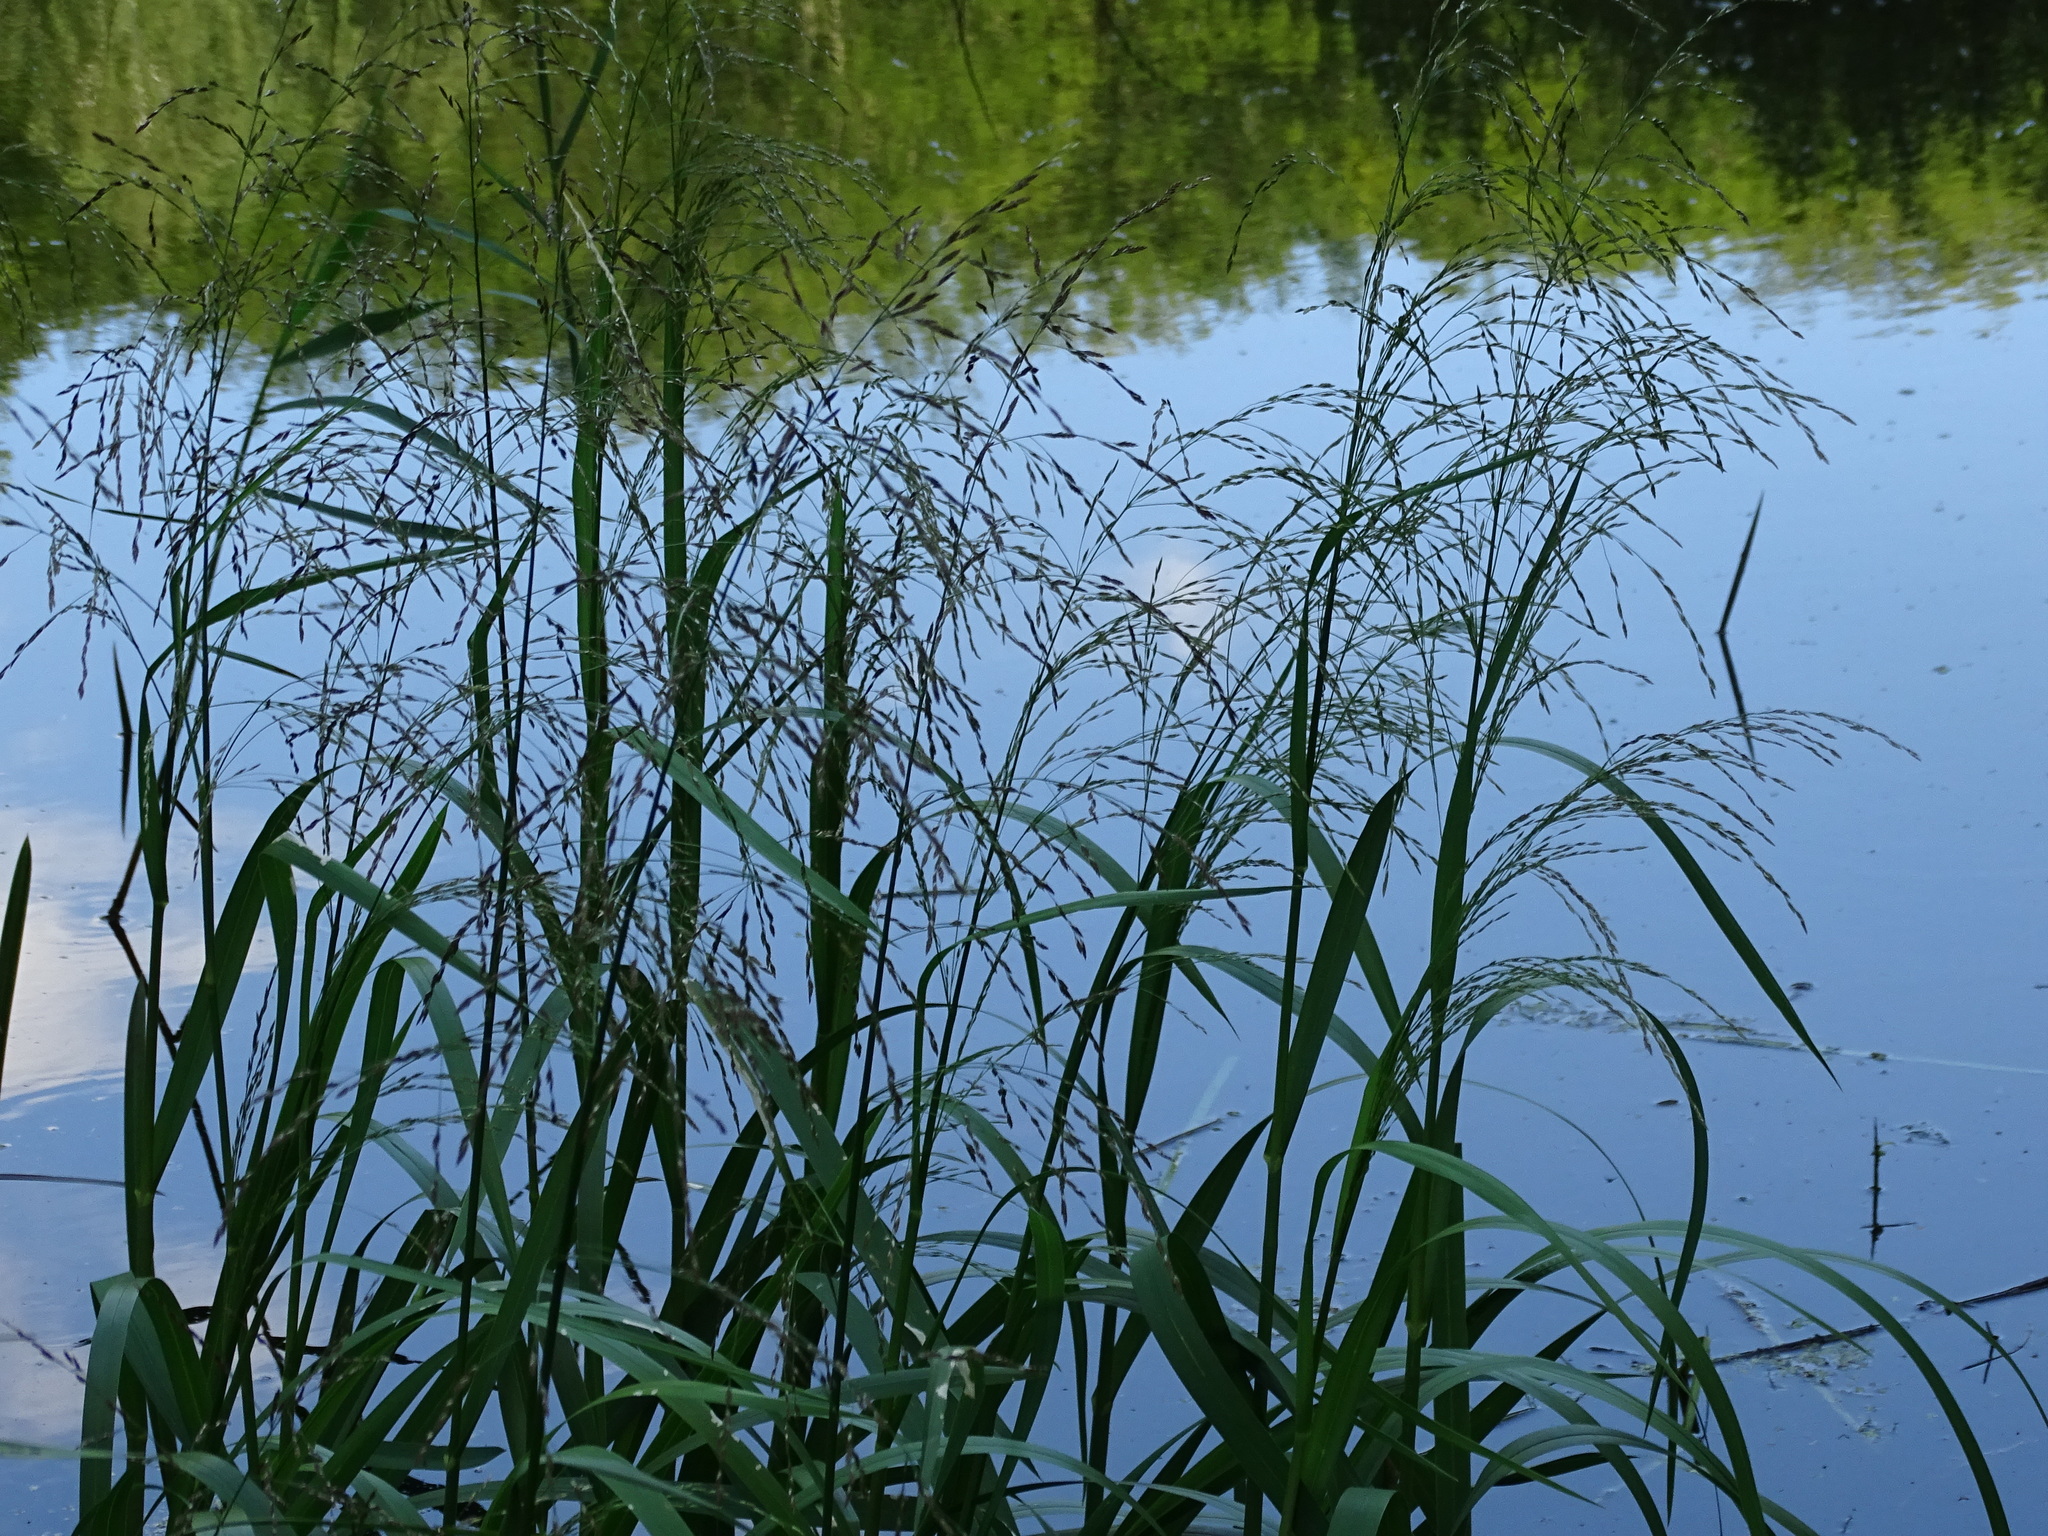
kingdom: Plantae
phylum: Tracheophyta
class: Liliopsida
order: Poales
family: Poaceae
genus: Glyceria
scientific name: Glyceria maxima
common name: Reed mannagrass
